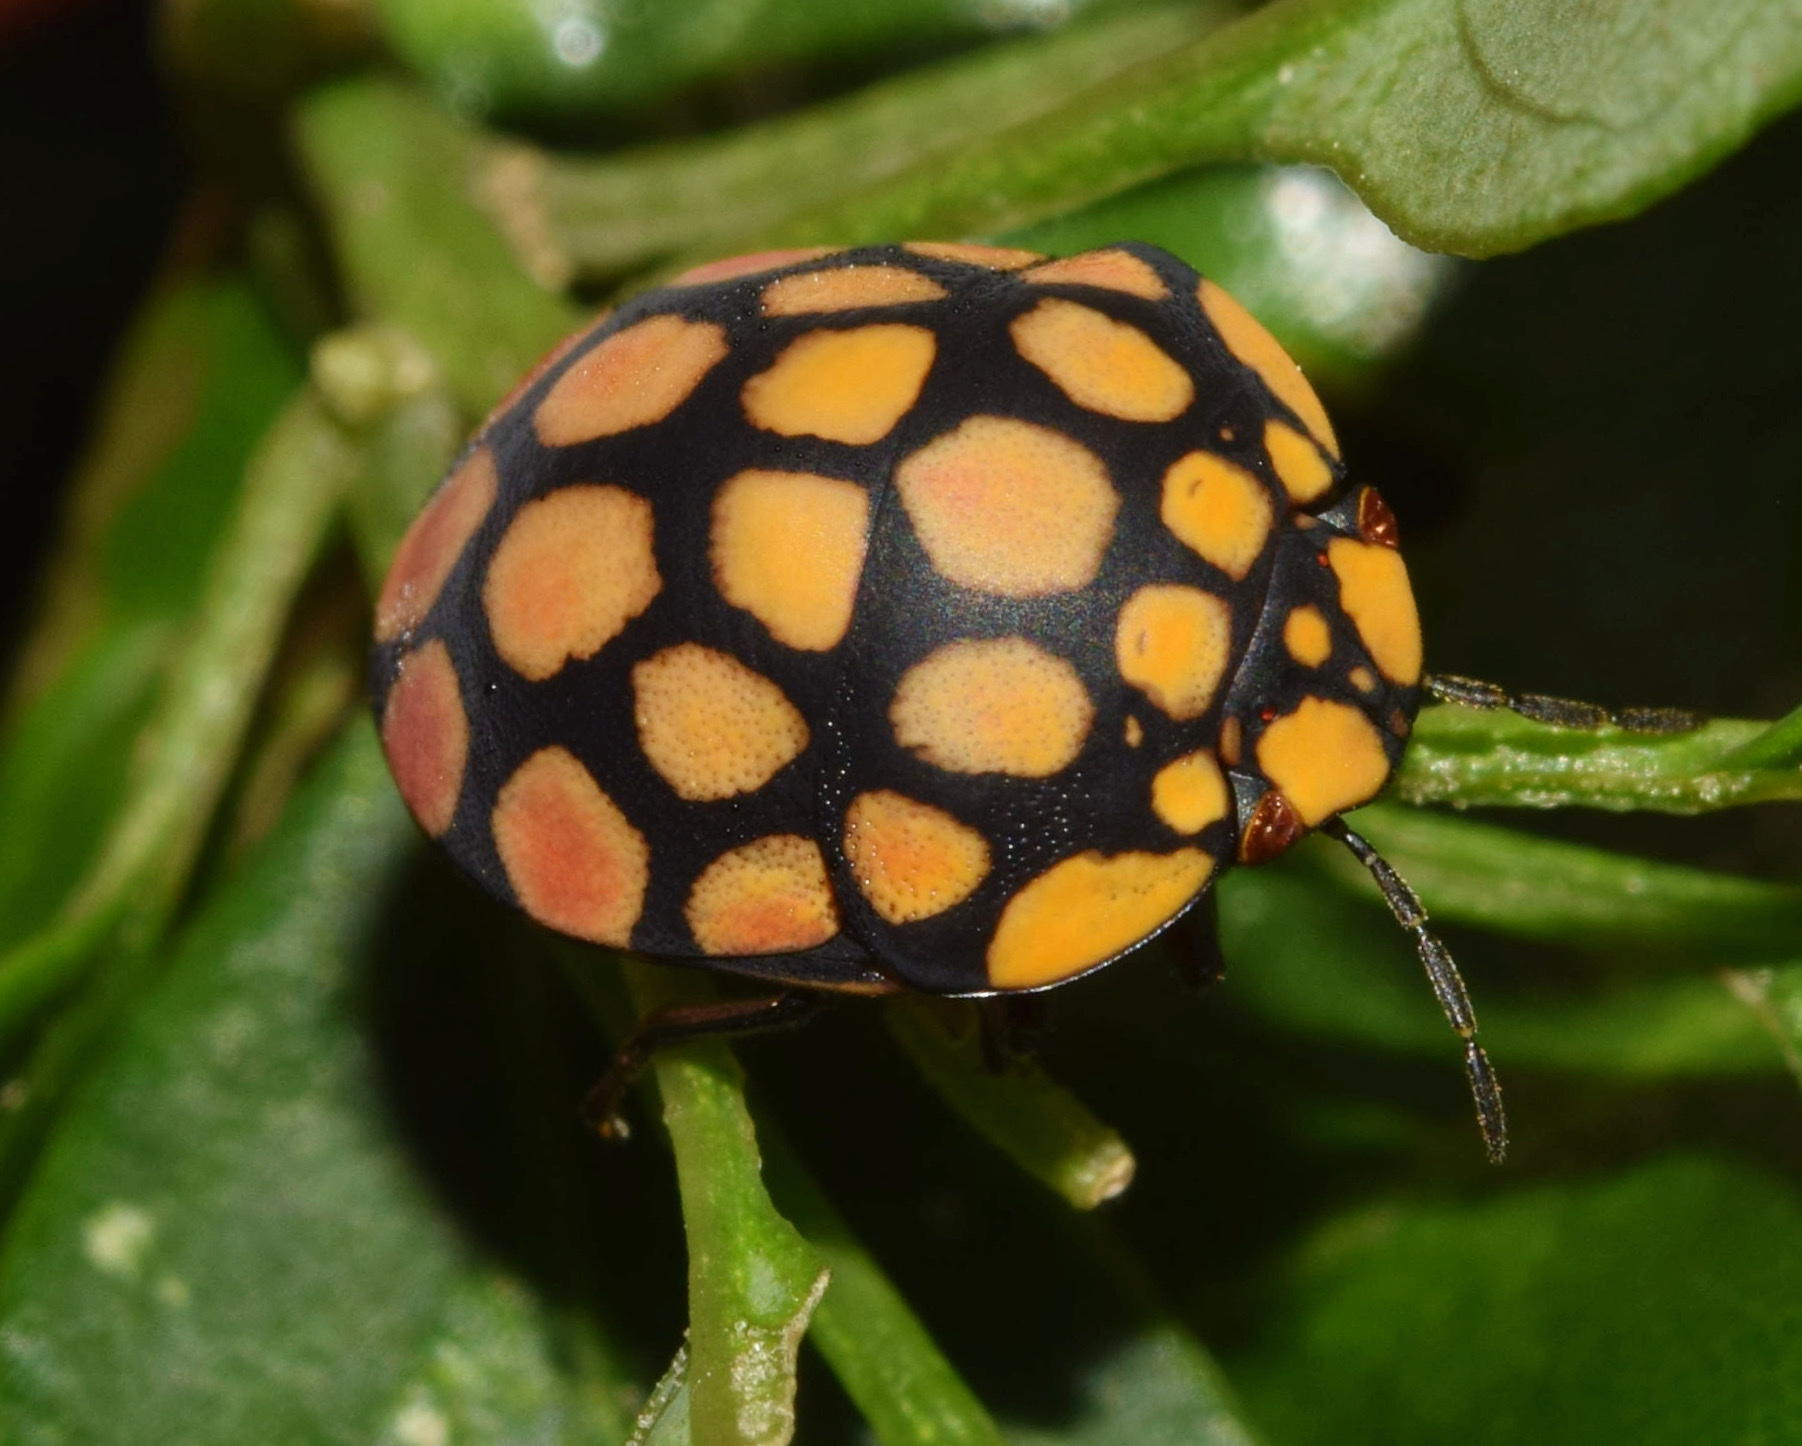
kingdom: Animalia
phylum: Arthropoda
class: Insecta
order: Hemiptera
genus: Steganocerus
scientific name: Steganocerus multipunctatus
